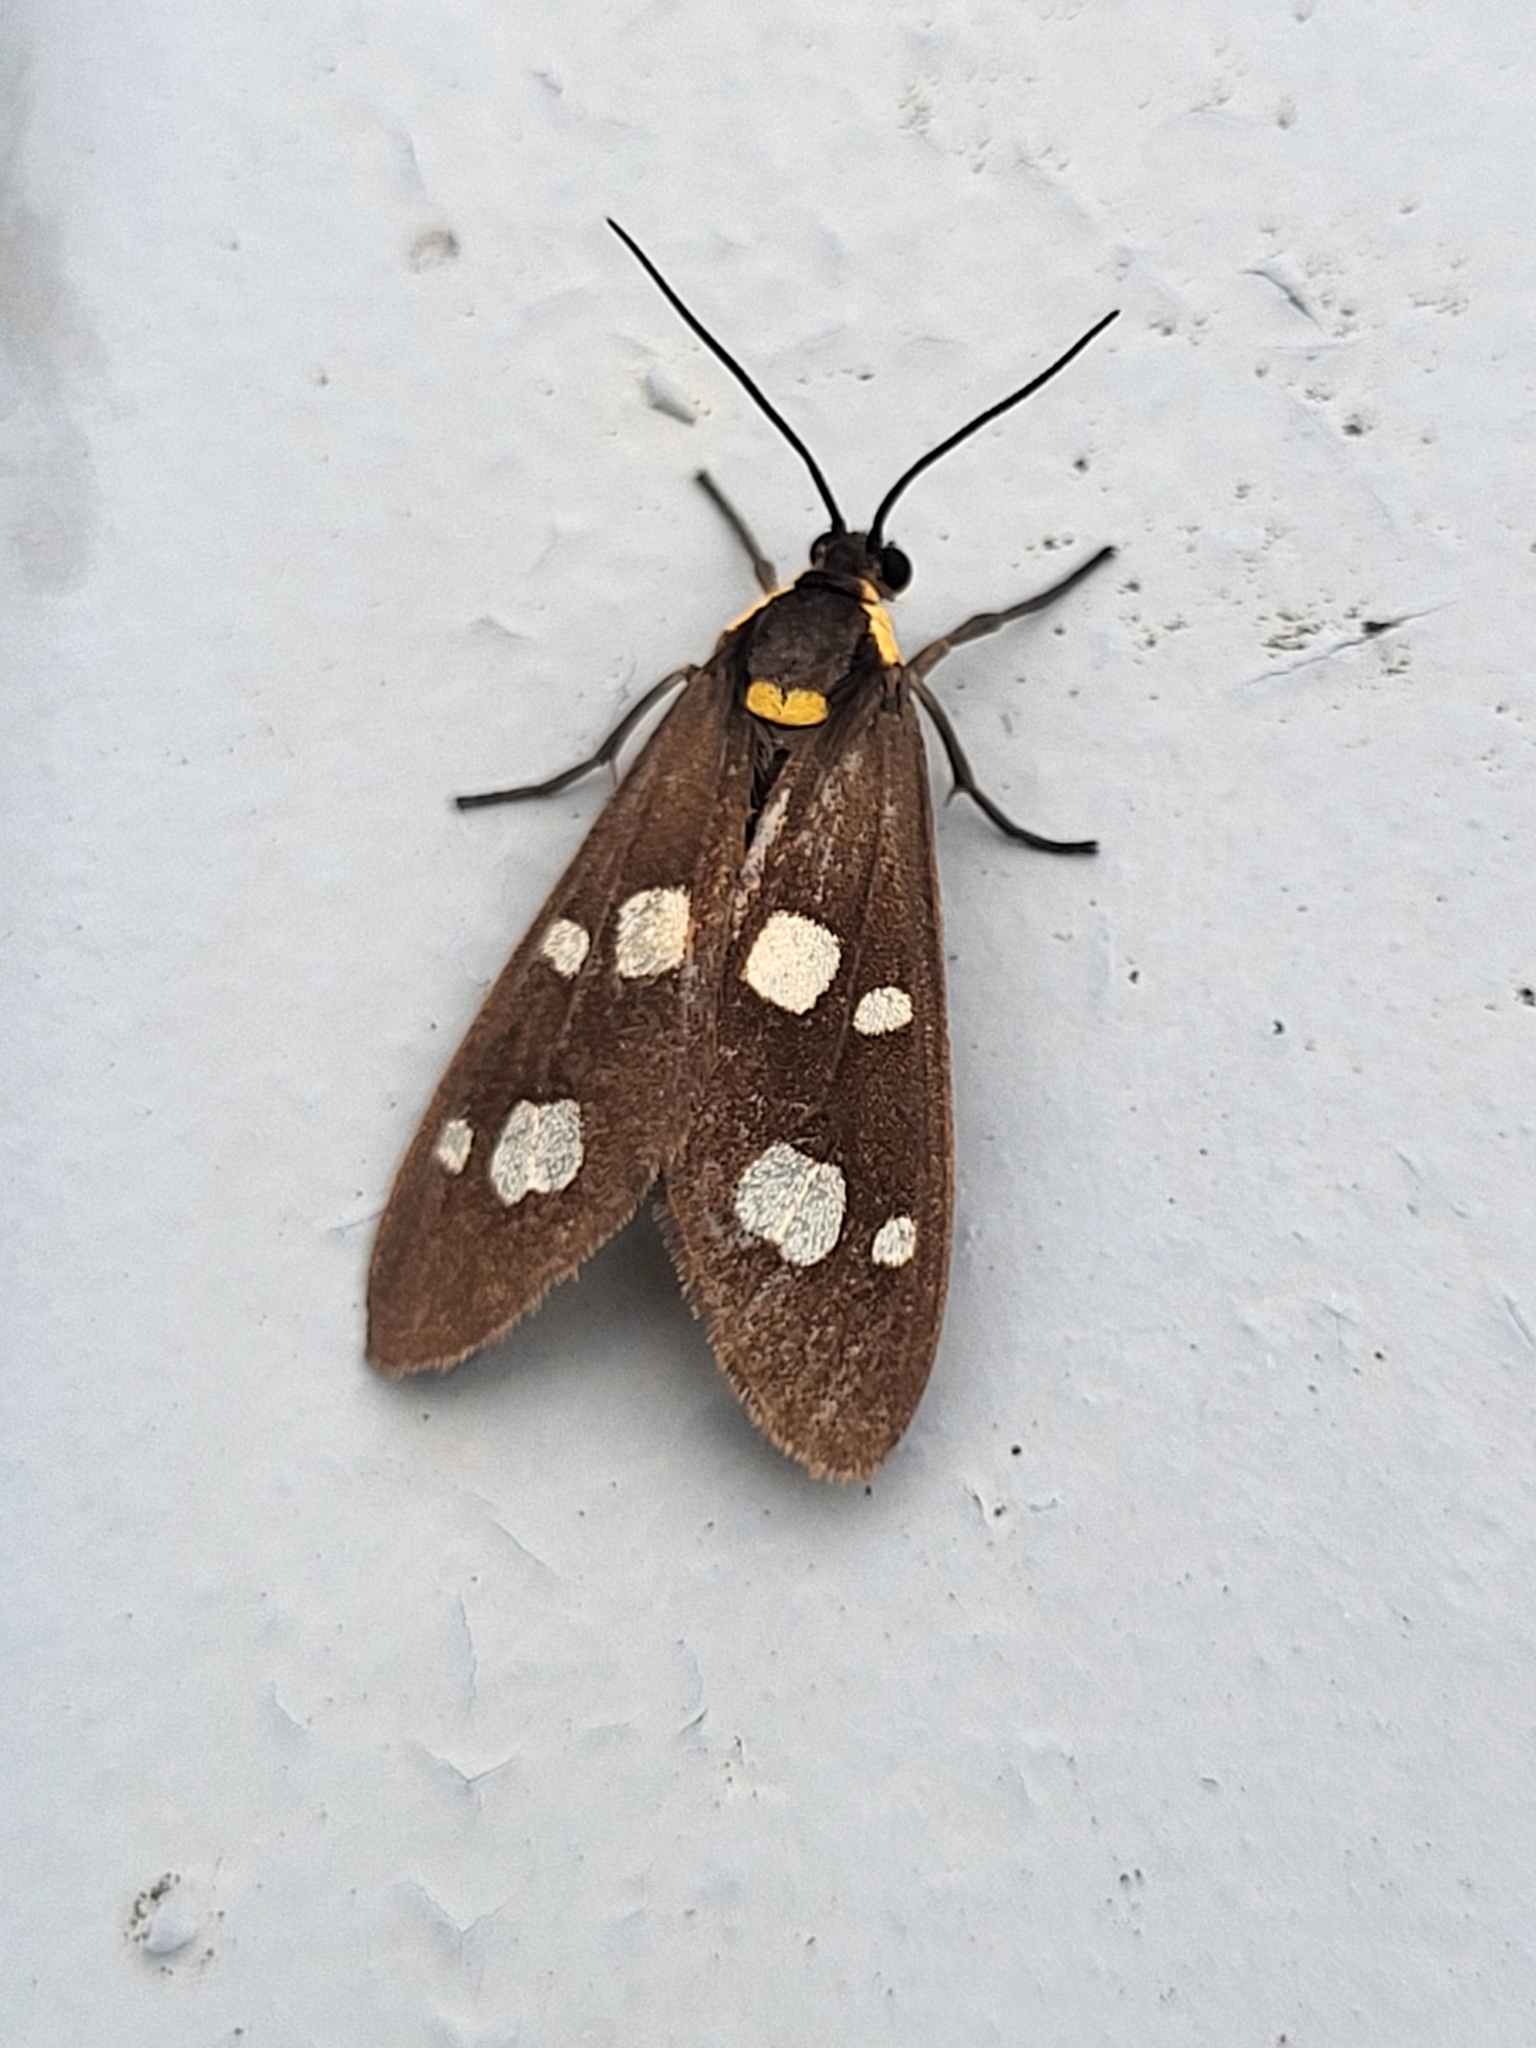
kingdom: Animalia
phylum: Arthropoda
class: Insecta
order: Lepidoptera
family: Erebidae
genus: Dysauxes
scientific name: Dysauxes punctata
